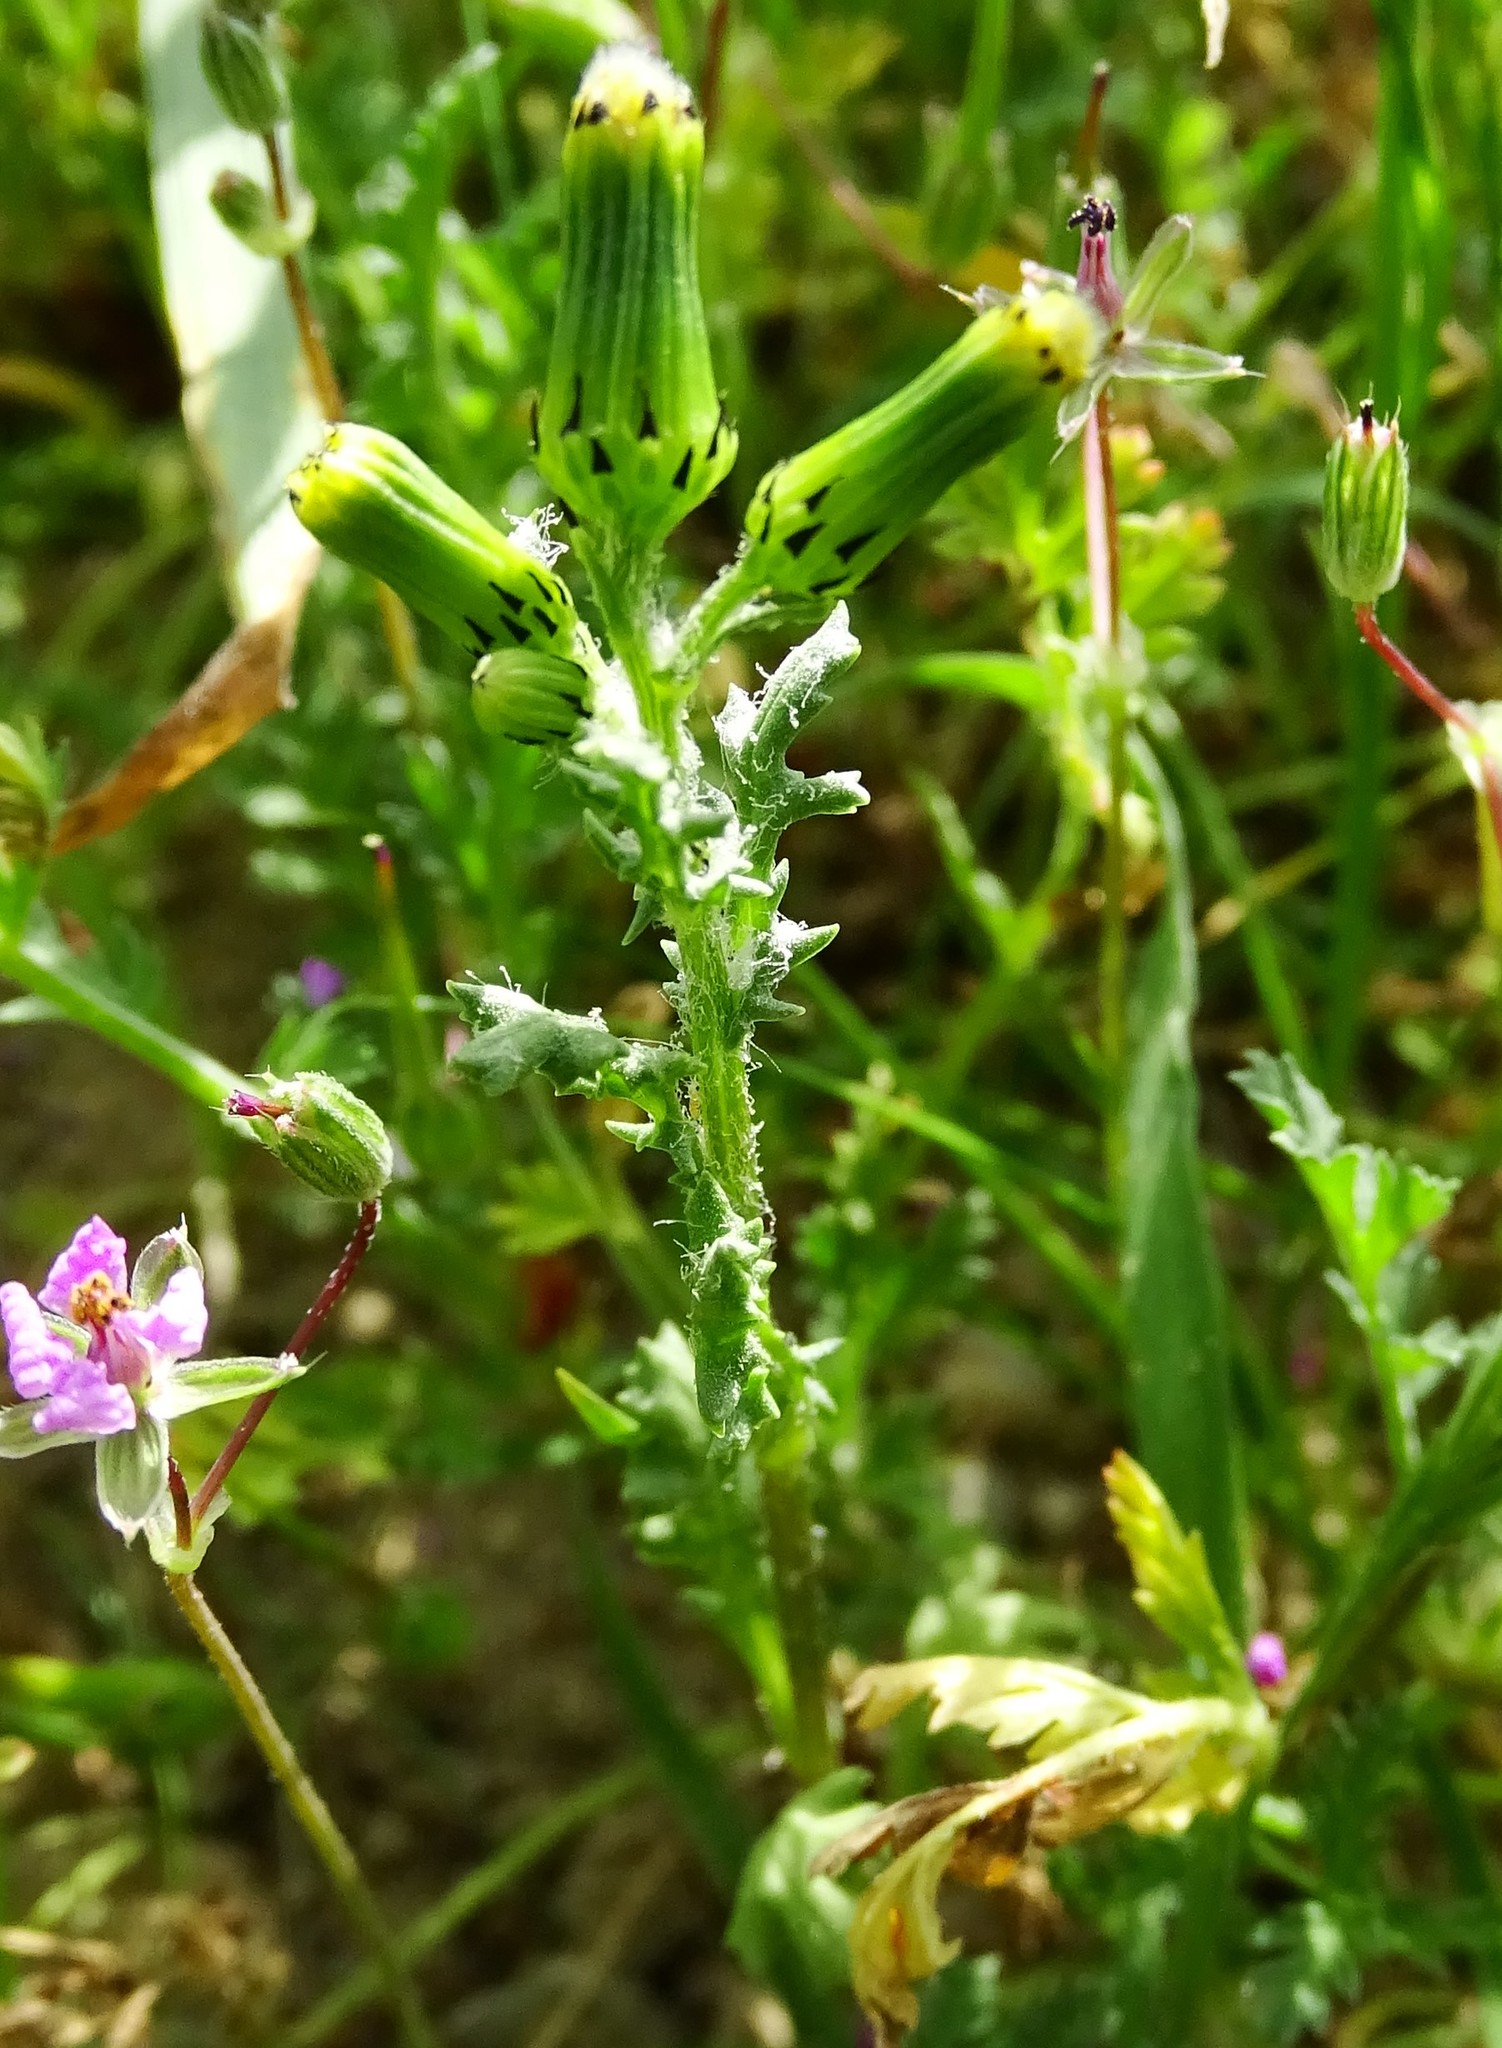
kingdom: Plantae
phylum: Tracheophyta
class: Magnoliopsida
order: Asterales
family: Asteraceae
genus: Senecio
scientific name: Senecio vulgaris
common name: Old-man-in-the-spring
